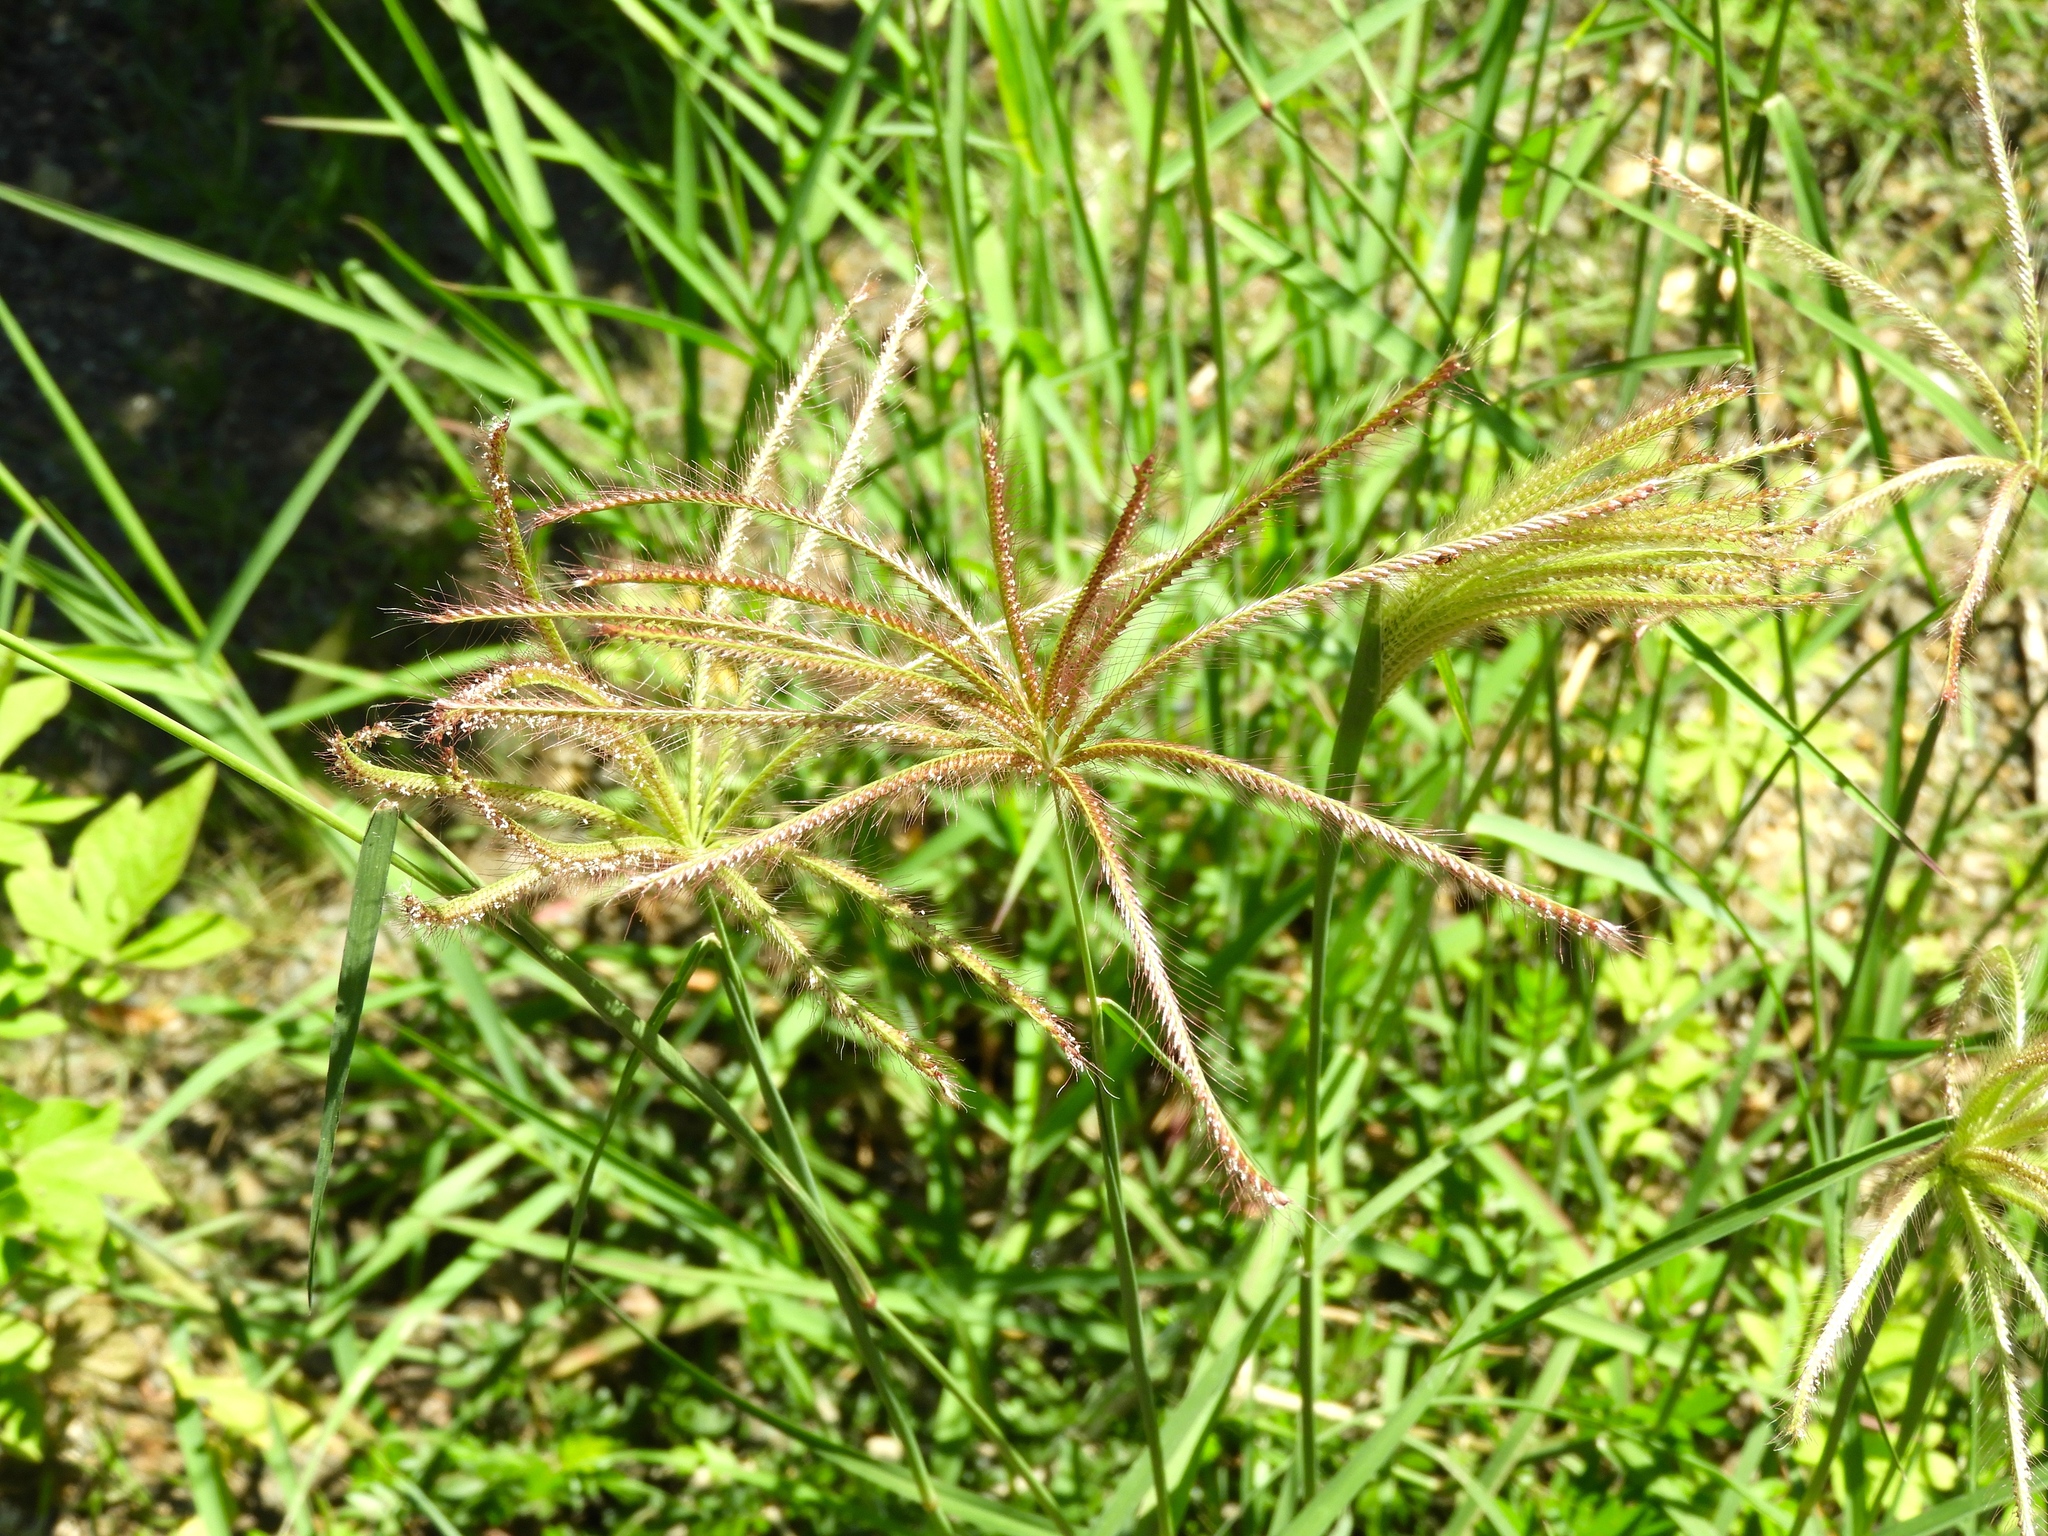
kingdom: Plantae
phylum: Tracheophyta
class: Liliopsida
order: Poales
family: Poaceae
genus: Chloris
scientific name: Chloris virgata
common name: Feathery rhodes-grass
